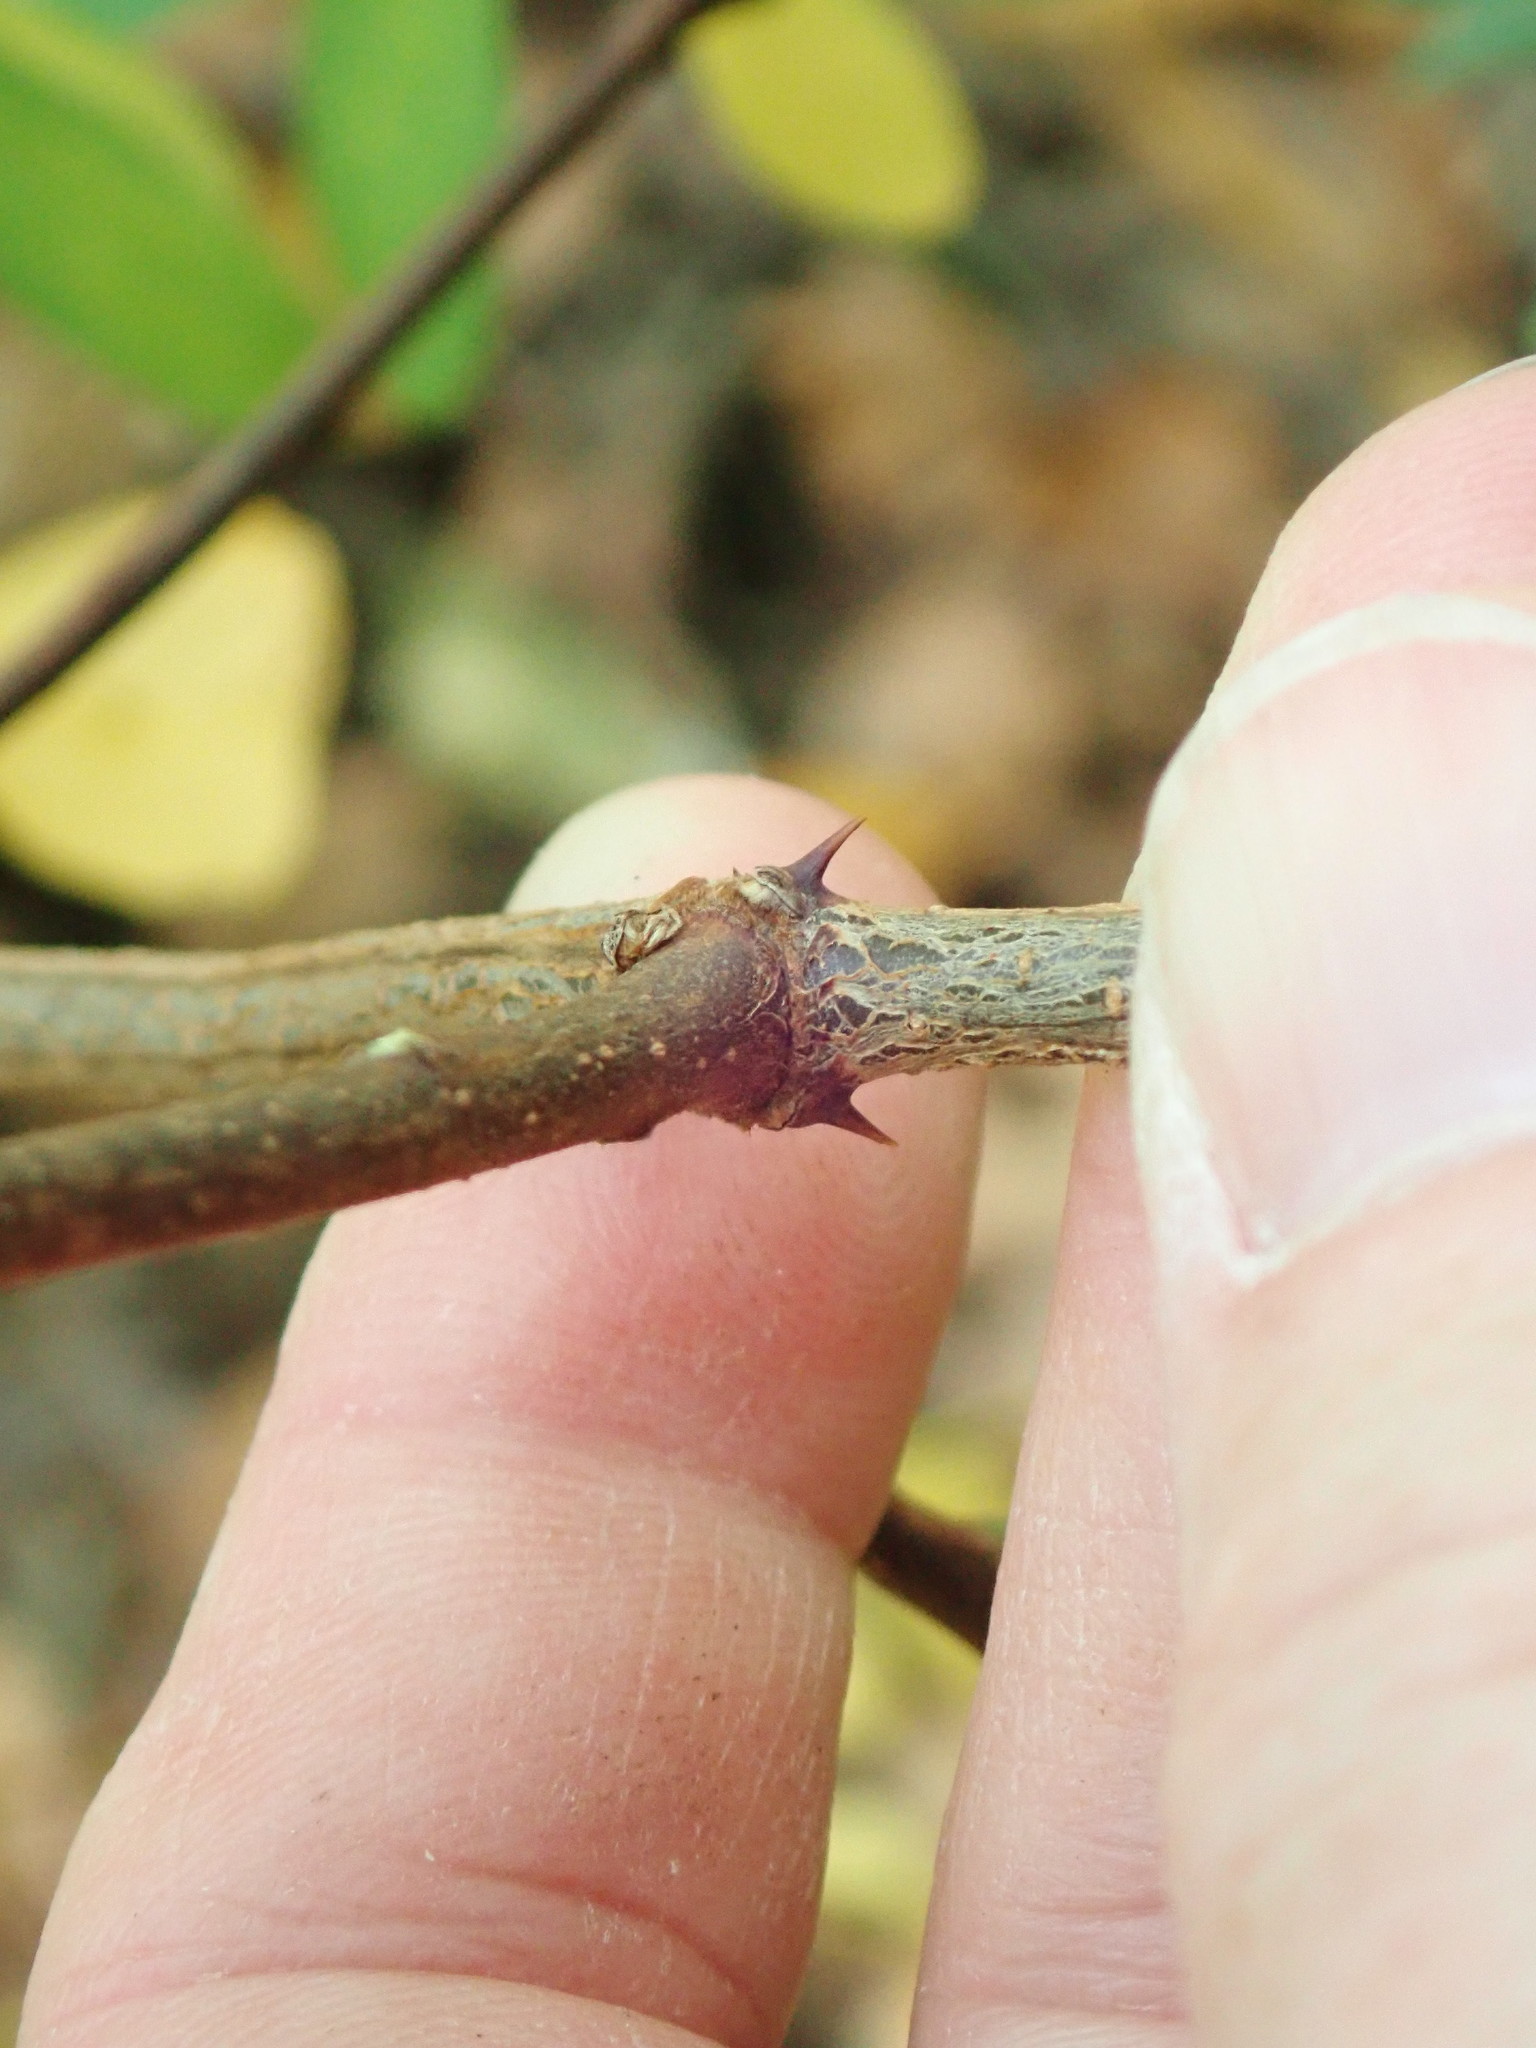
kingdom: Plantae
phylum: Tracheophyta
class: Magnoliopsida
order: Fabales
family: Fabaceae
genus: Robinia
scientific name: Robinia pseudoacacia
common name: Black locust
